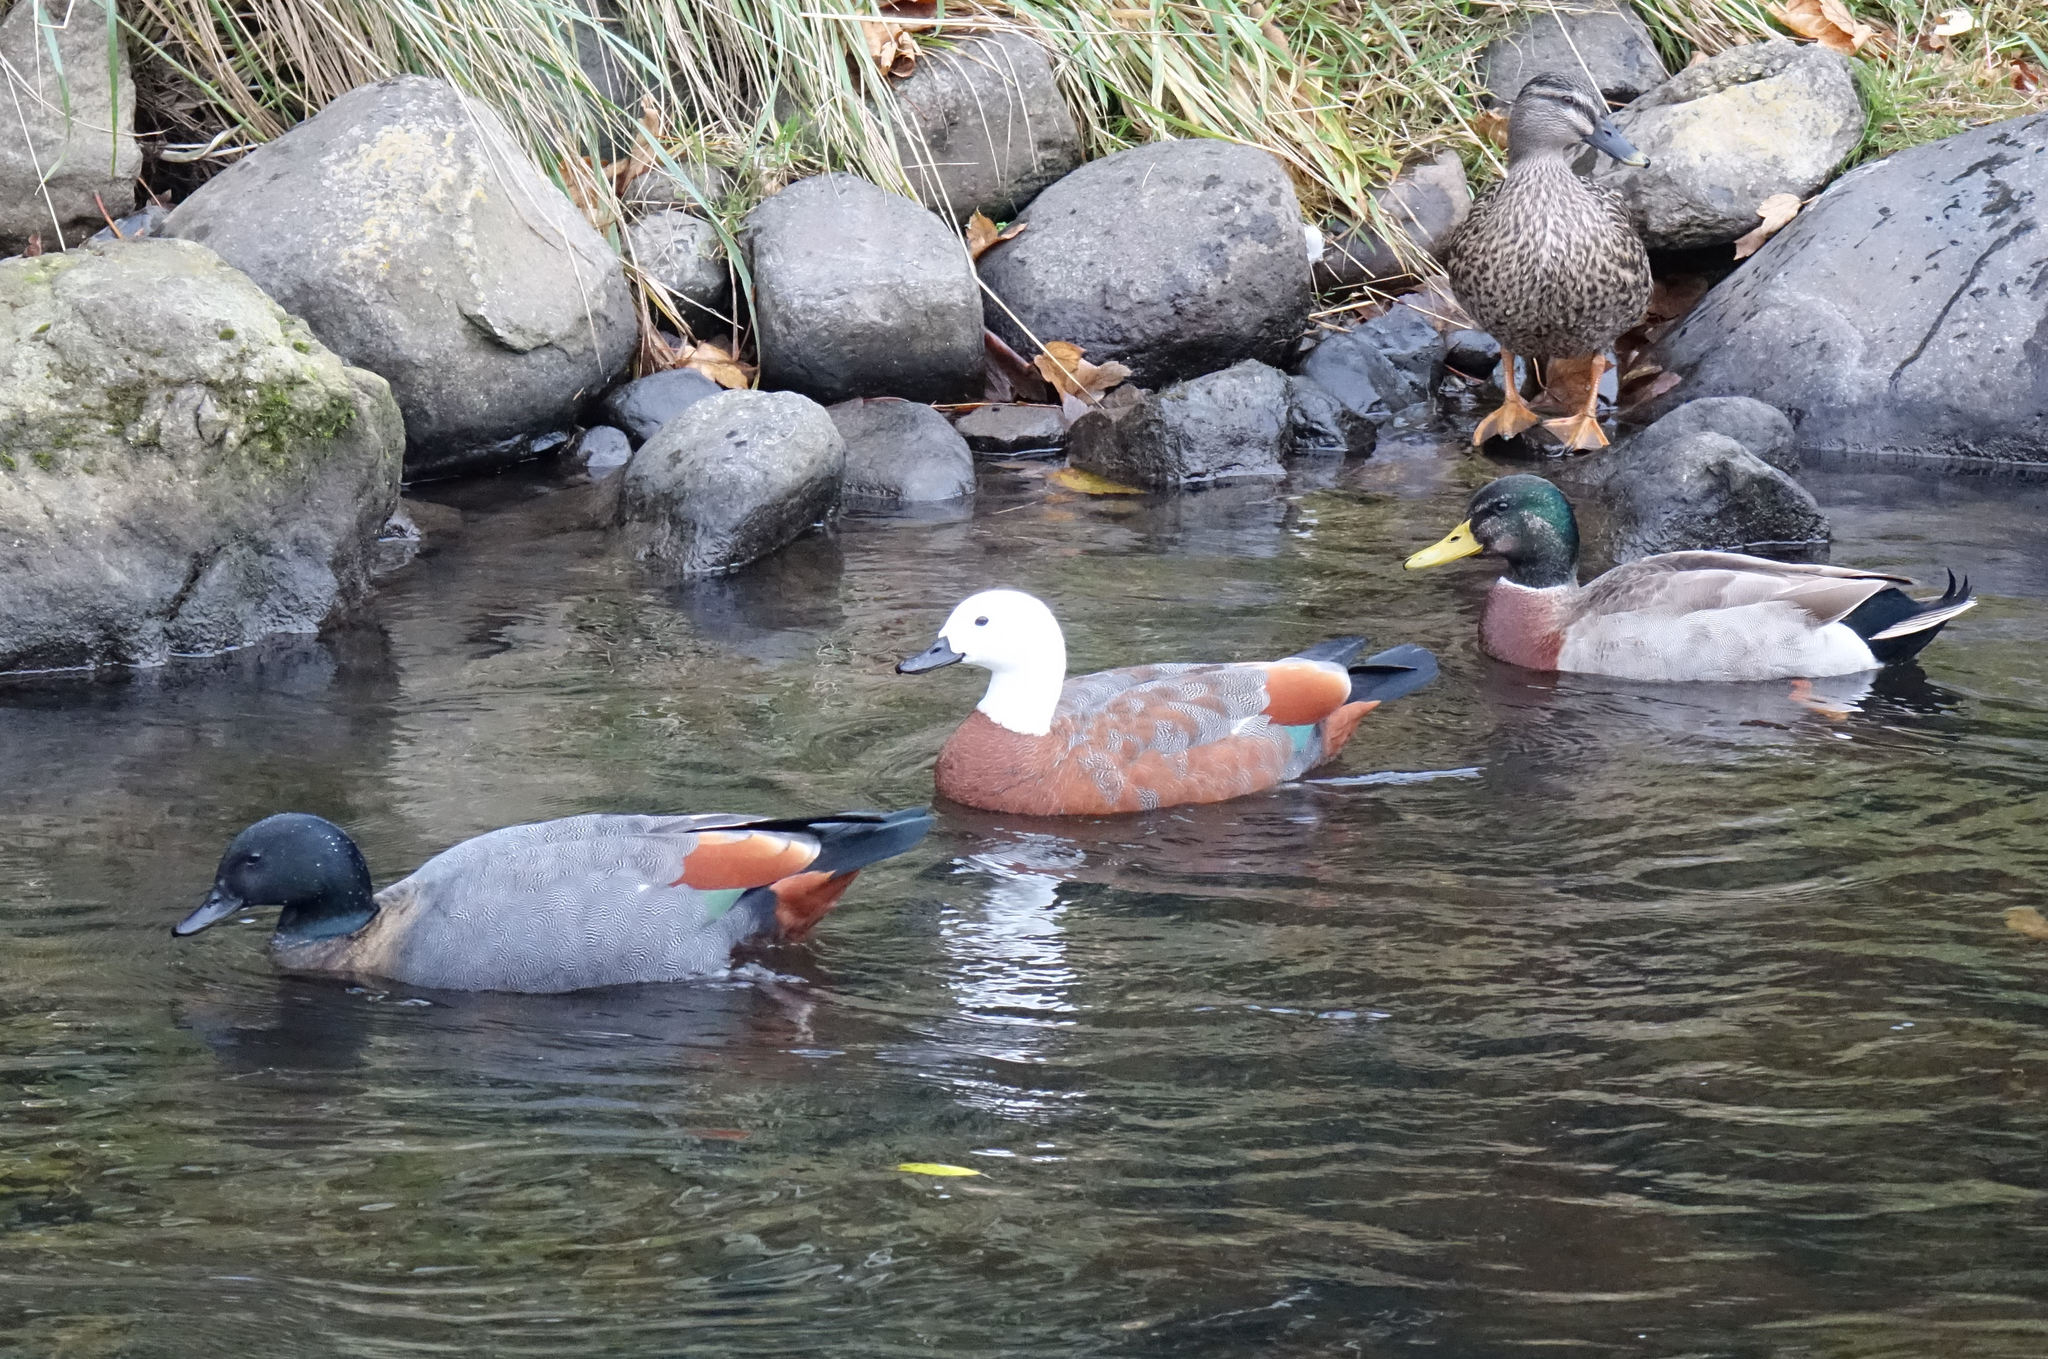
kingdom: Animalia
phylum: Chordata
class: Aves
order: Anseriformes
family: Anatidae
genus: Tadorna
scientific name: Tadorna variegata
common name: Paradise shelduck
